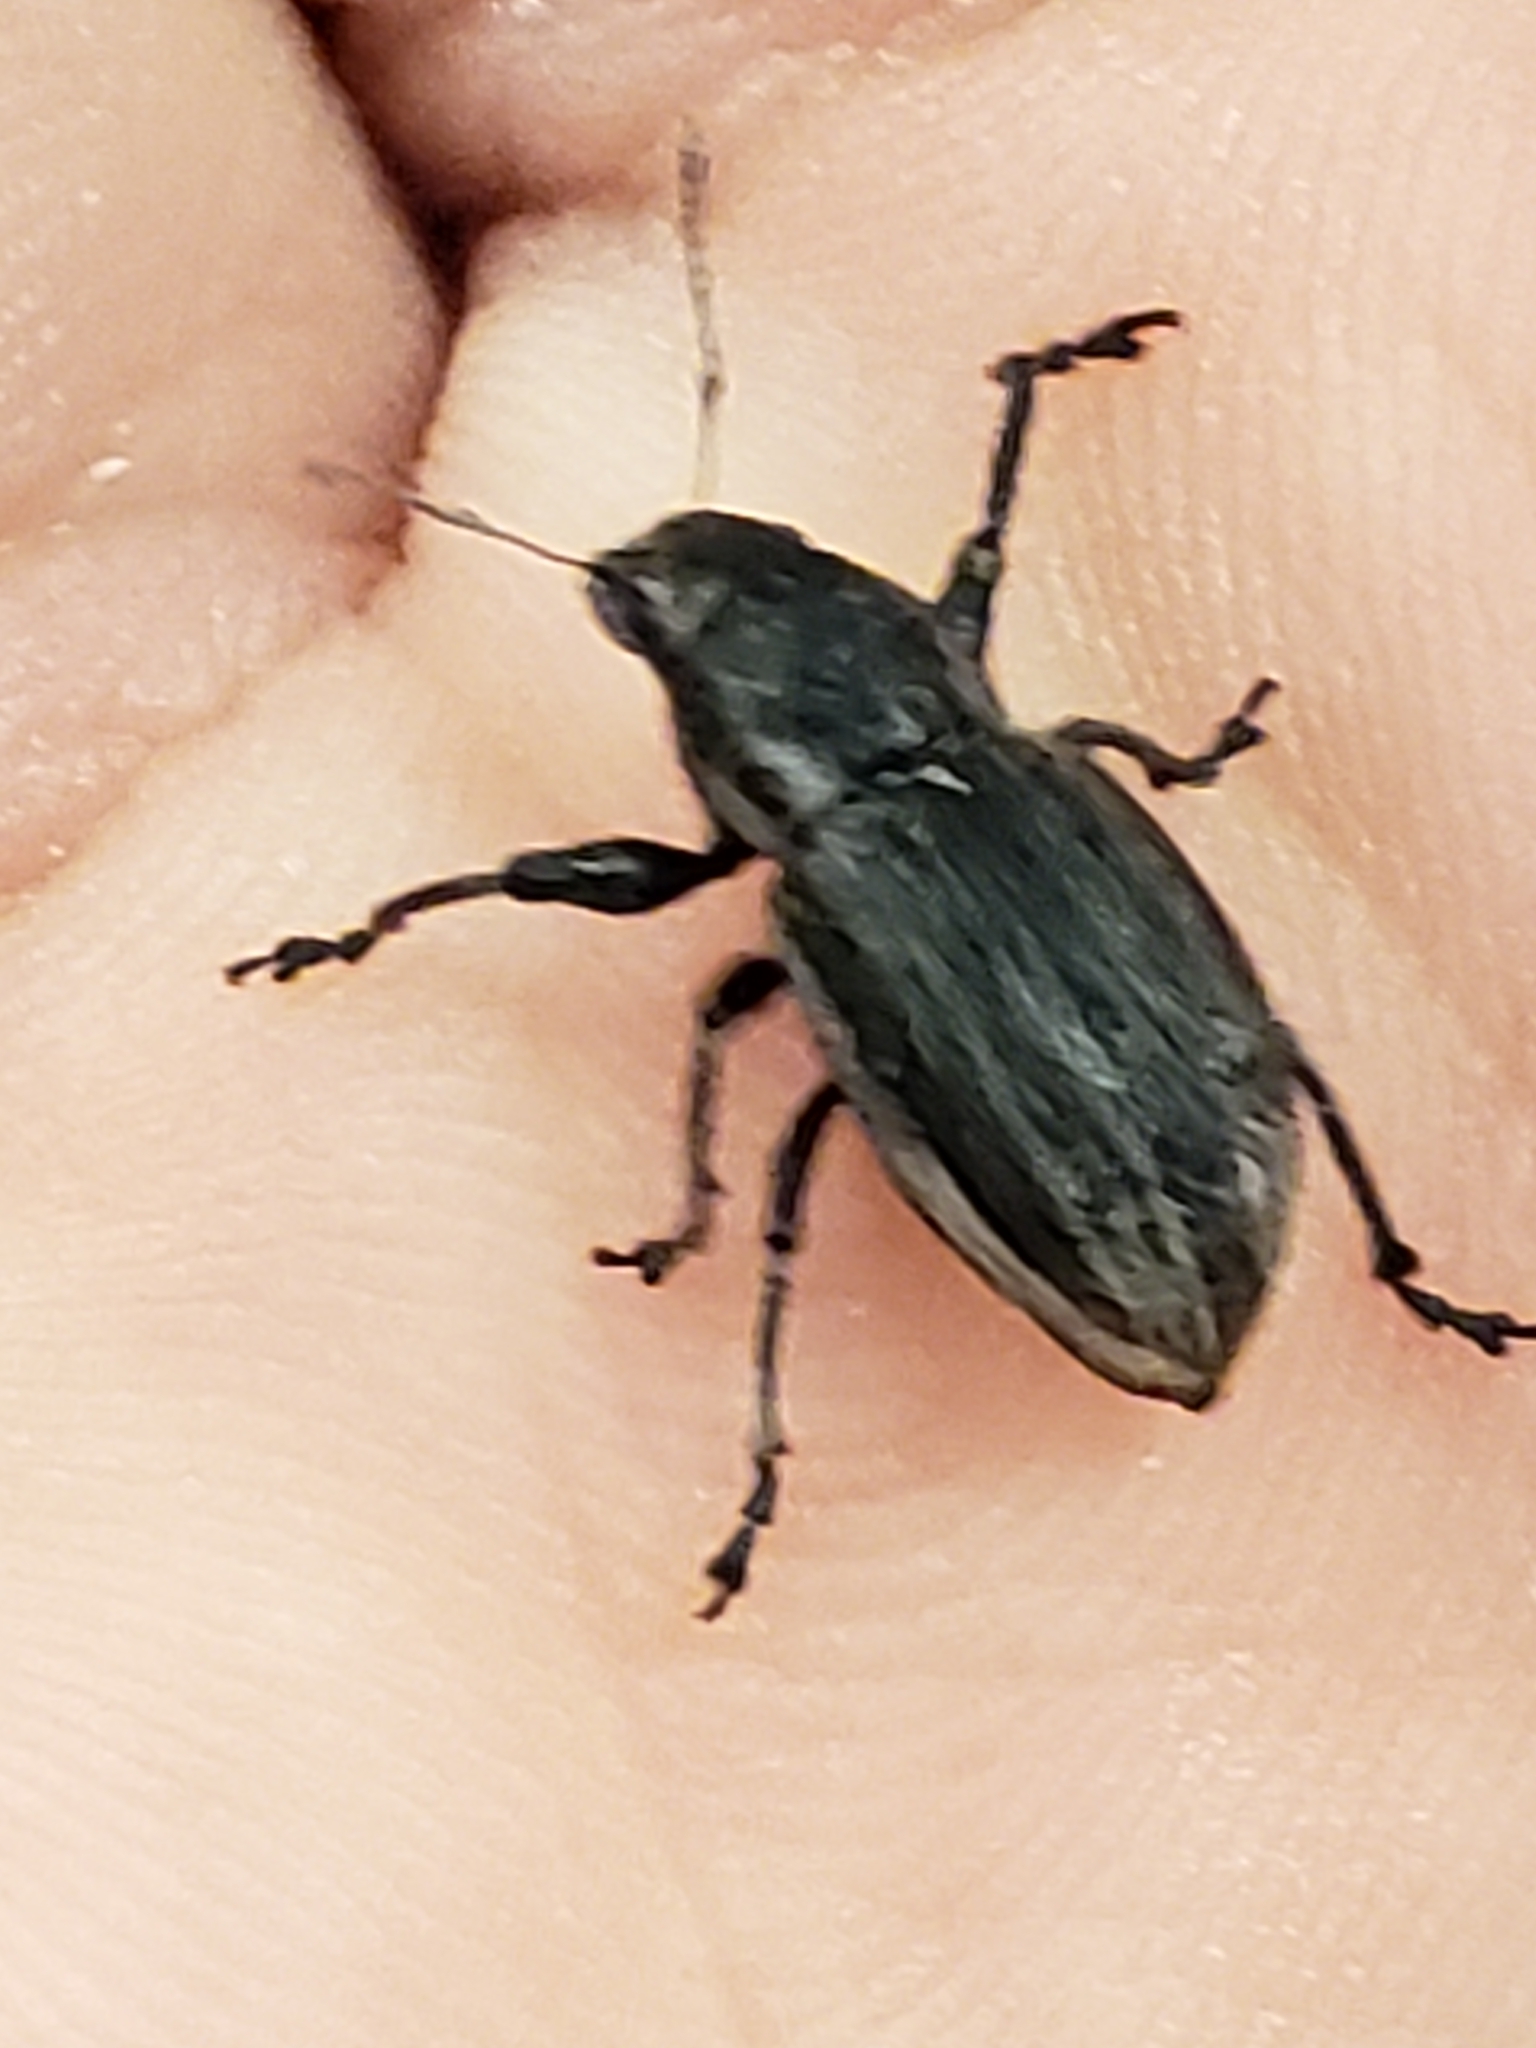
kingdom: Animalia
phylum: Arthropoda
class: Insecta
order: Coleoptera
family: Curculionidae
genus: Naupactus
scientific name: Naupactus leucoloma
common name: Whitefringed beetle
